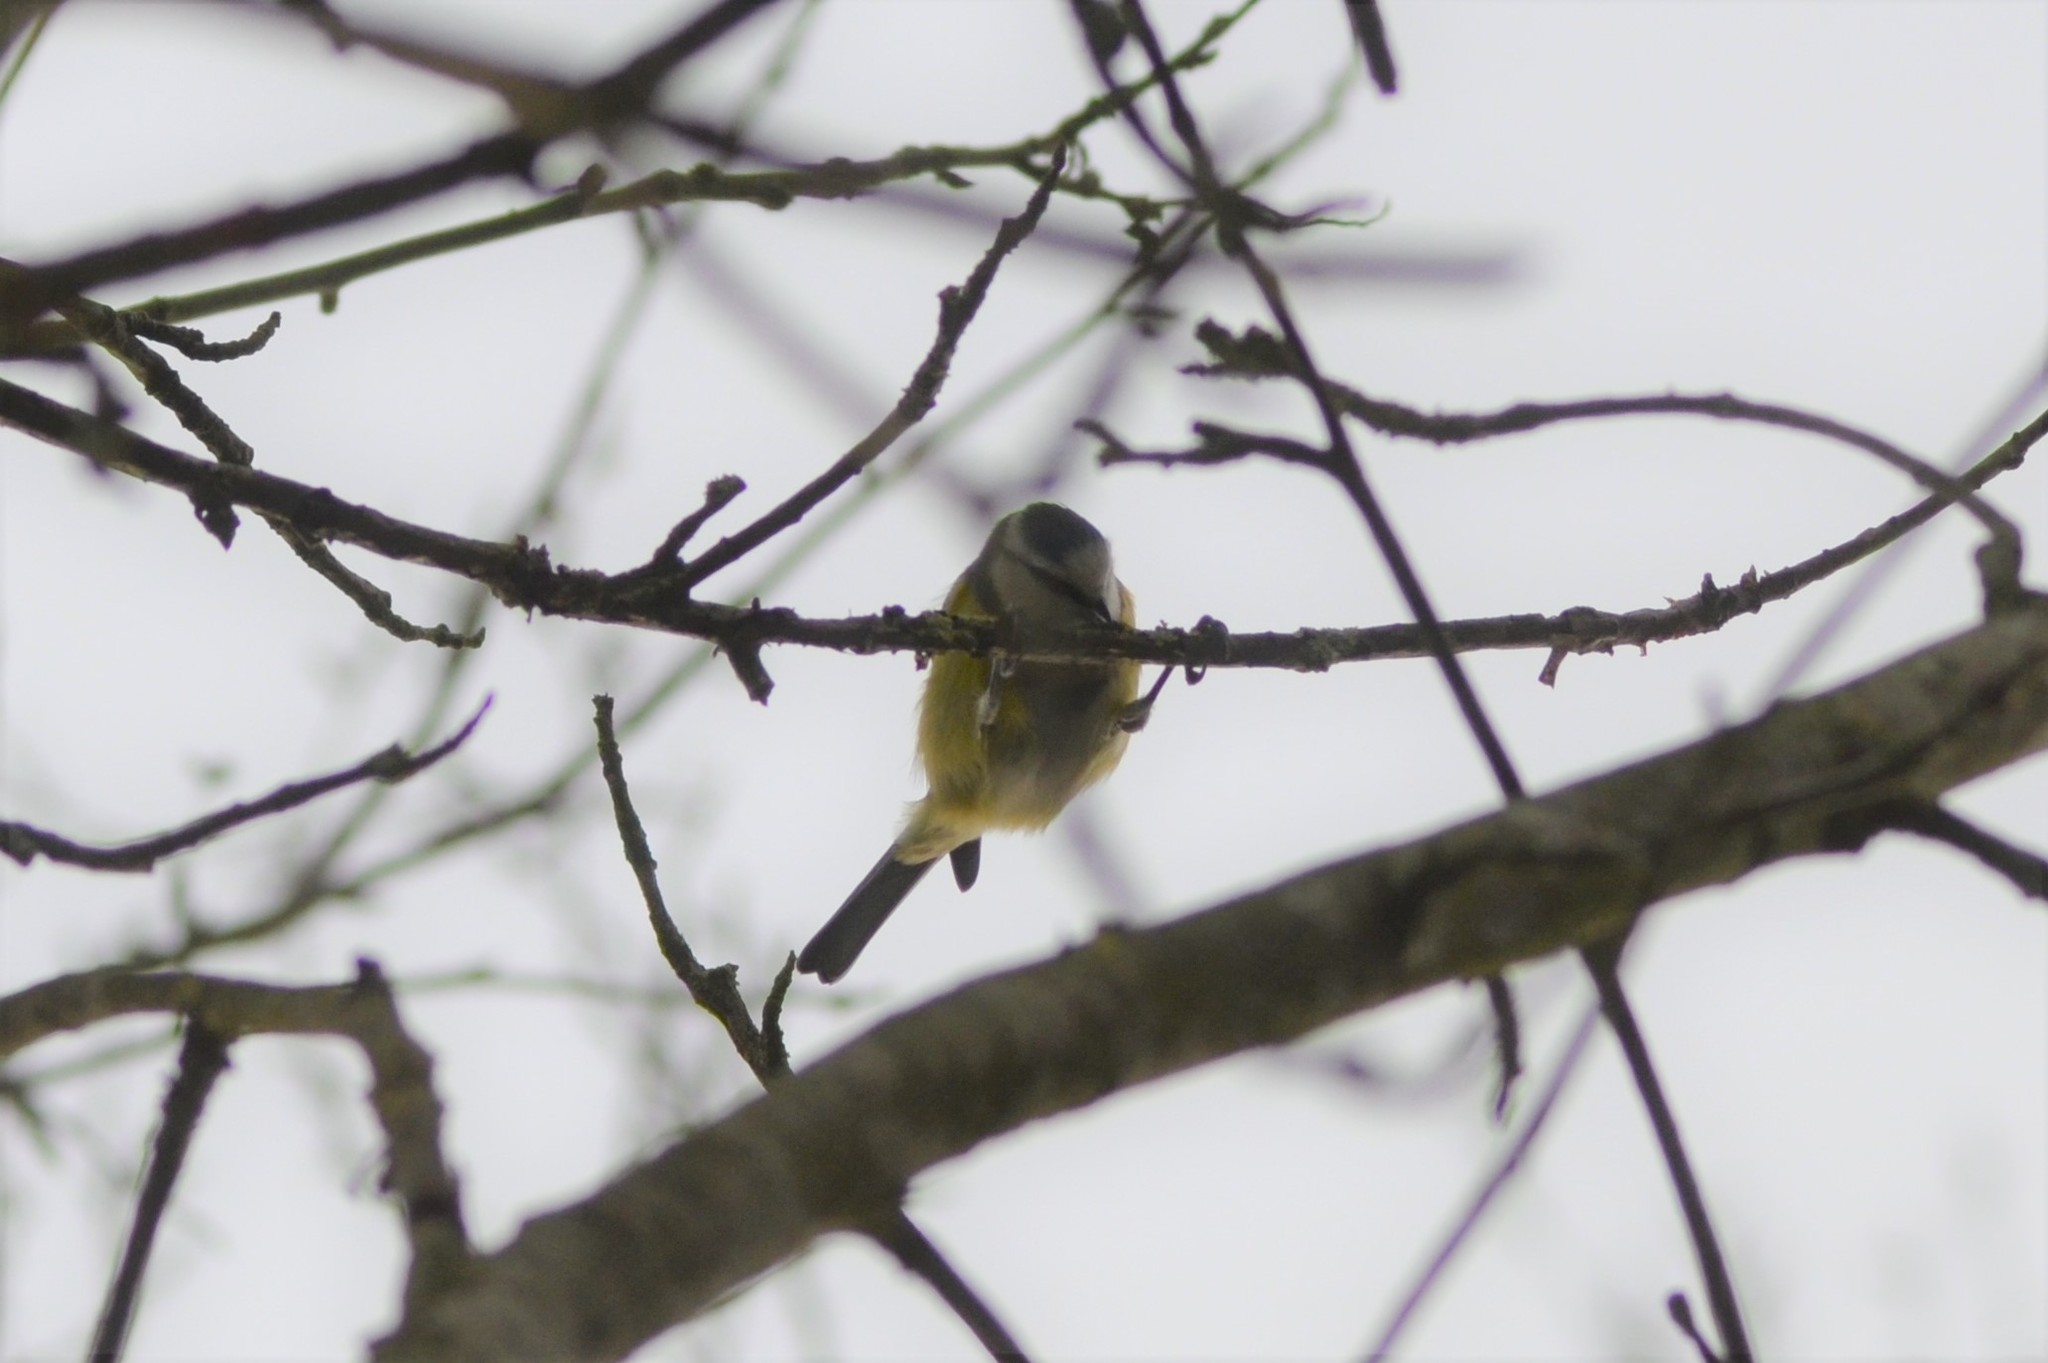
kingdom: Animalia
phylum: Chordata
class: Aves
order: Passeriformes
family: Paridae
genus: Cyanistes
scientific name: Cyanistes caeruleus
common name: Eurasian blue tit
